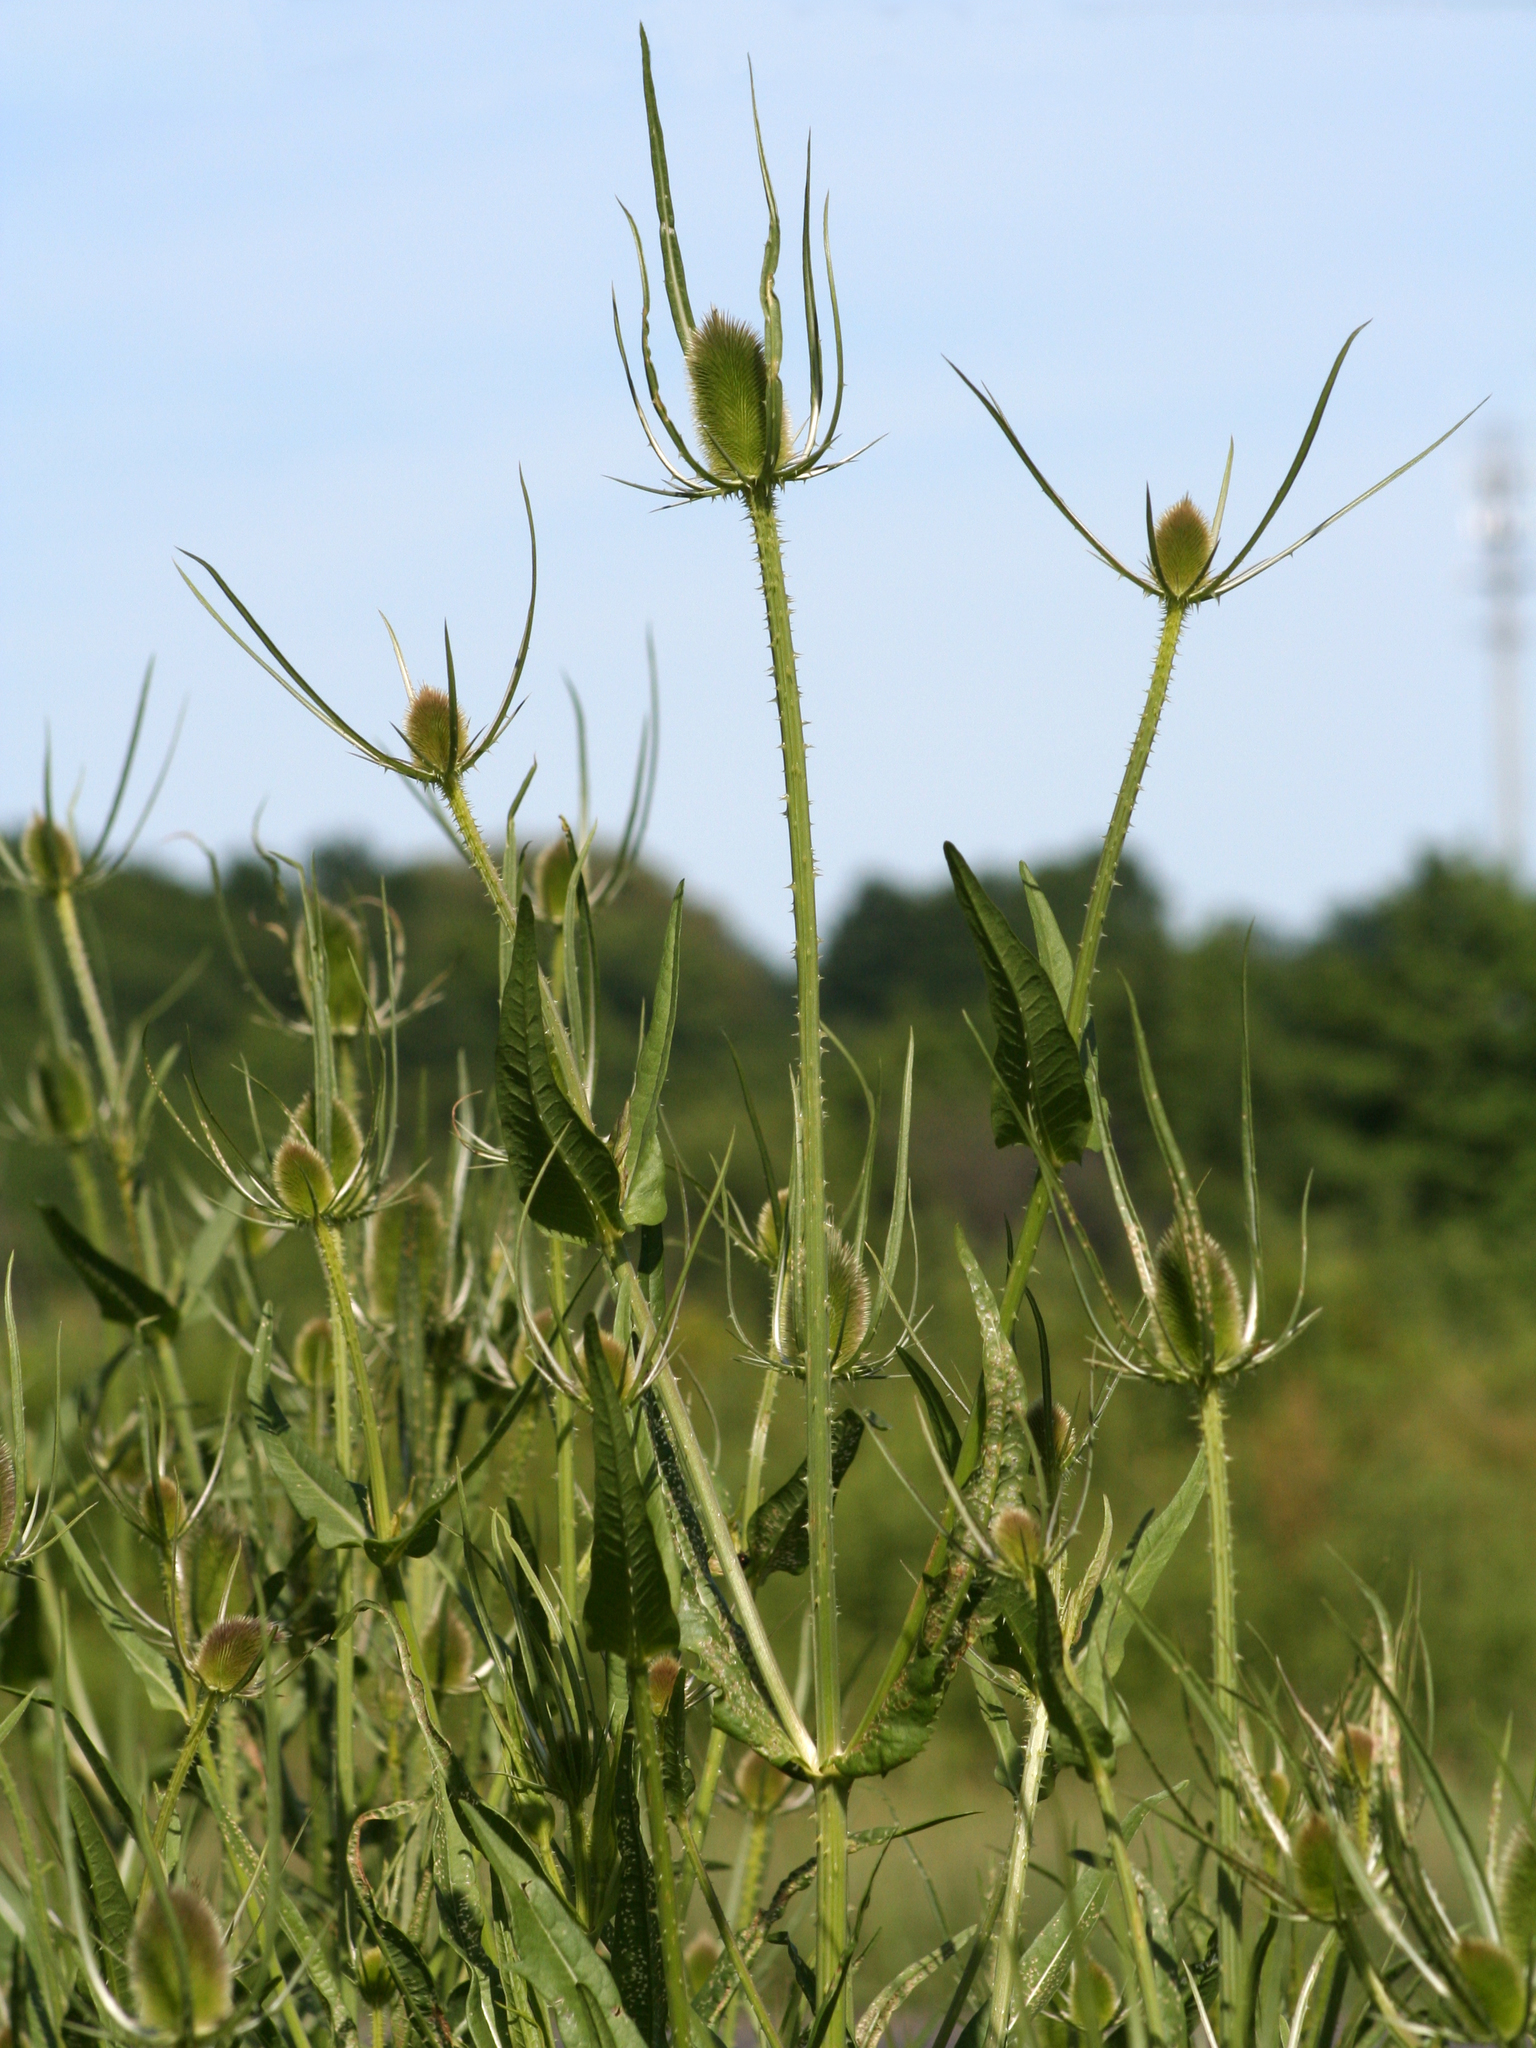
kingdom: Plantae
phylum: Tracheophyta
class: Magnoliopsida
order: Dipsacales
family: Caprifoliaceae
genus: Dipsacus
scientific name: Dipsacus fullonum
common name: Teasel
